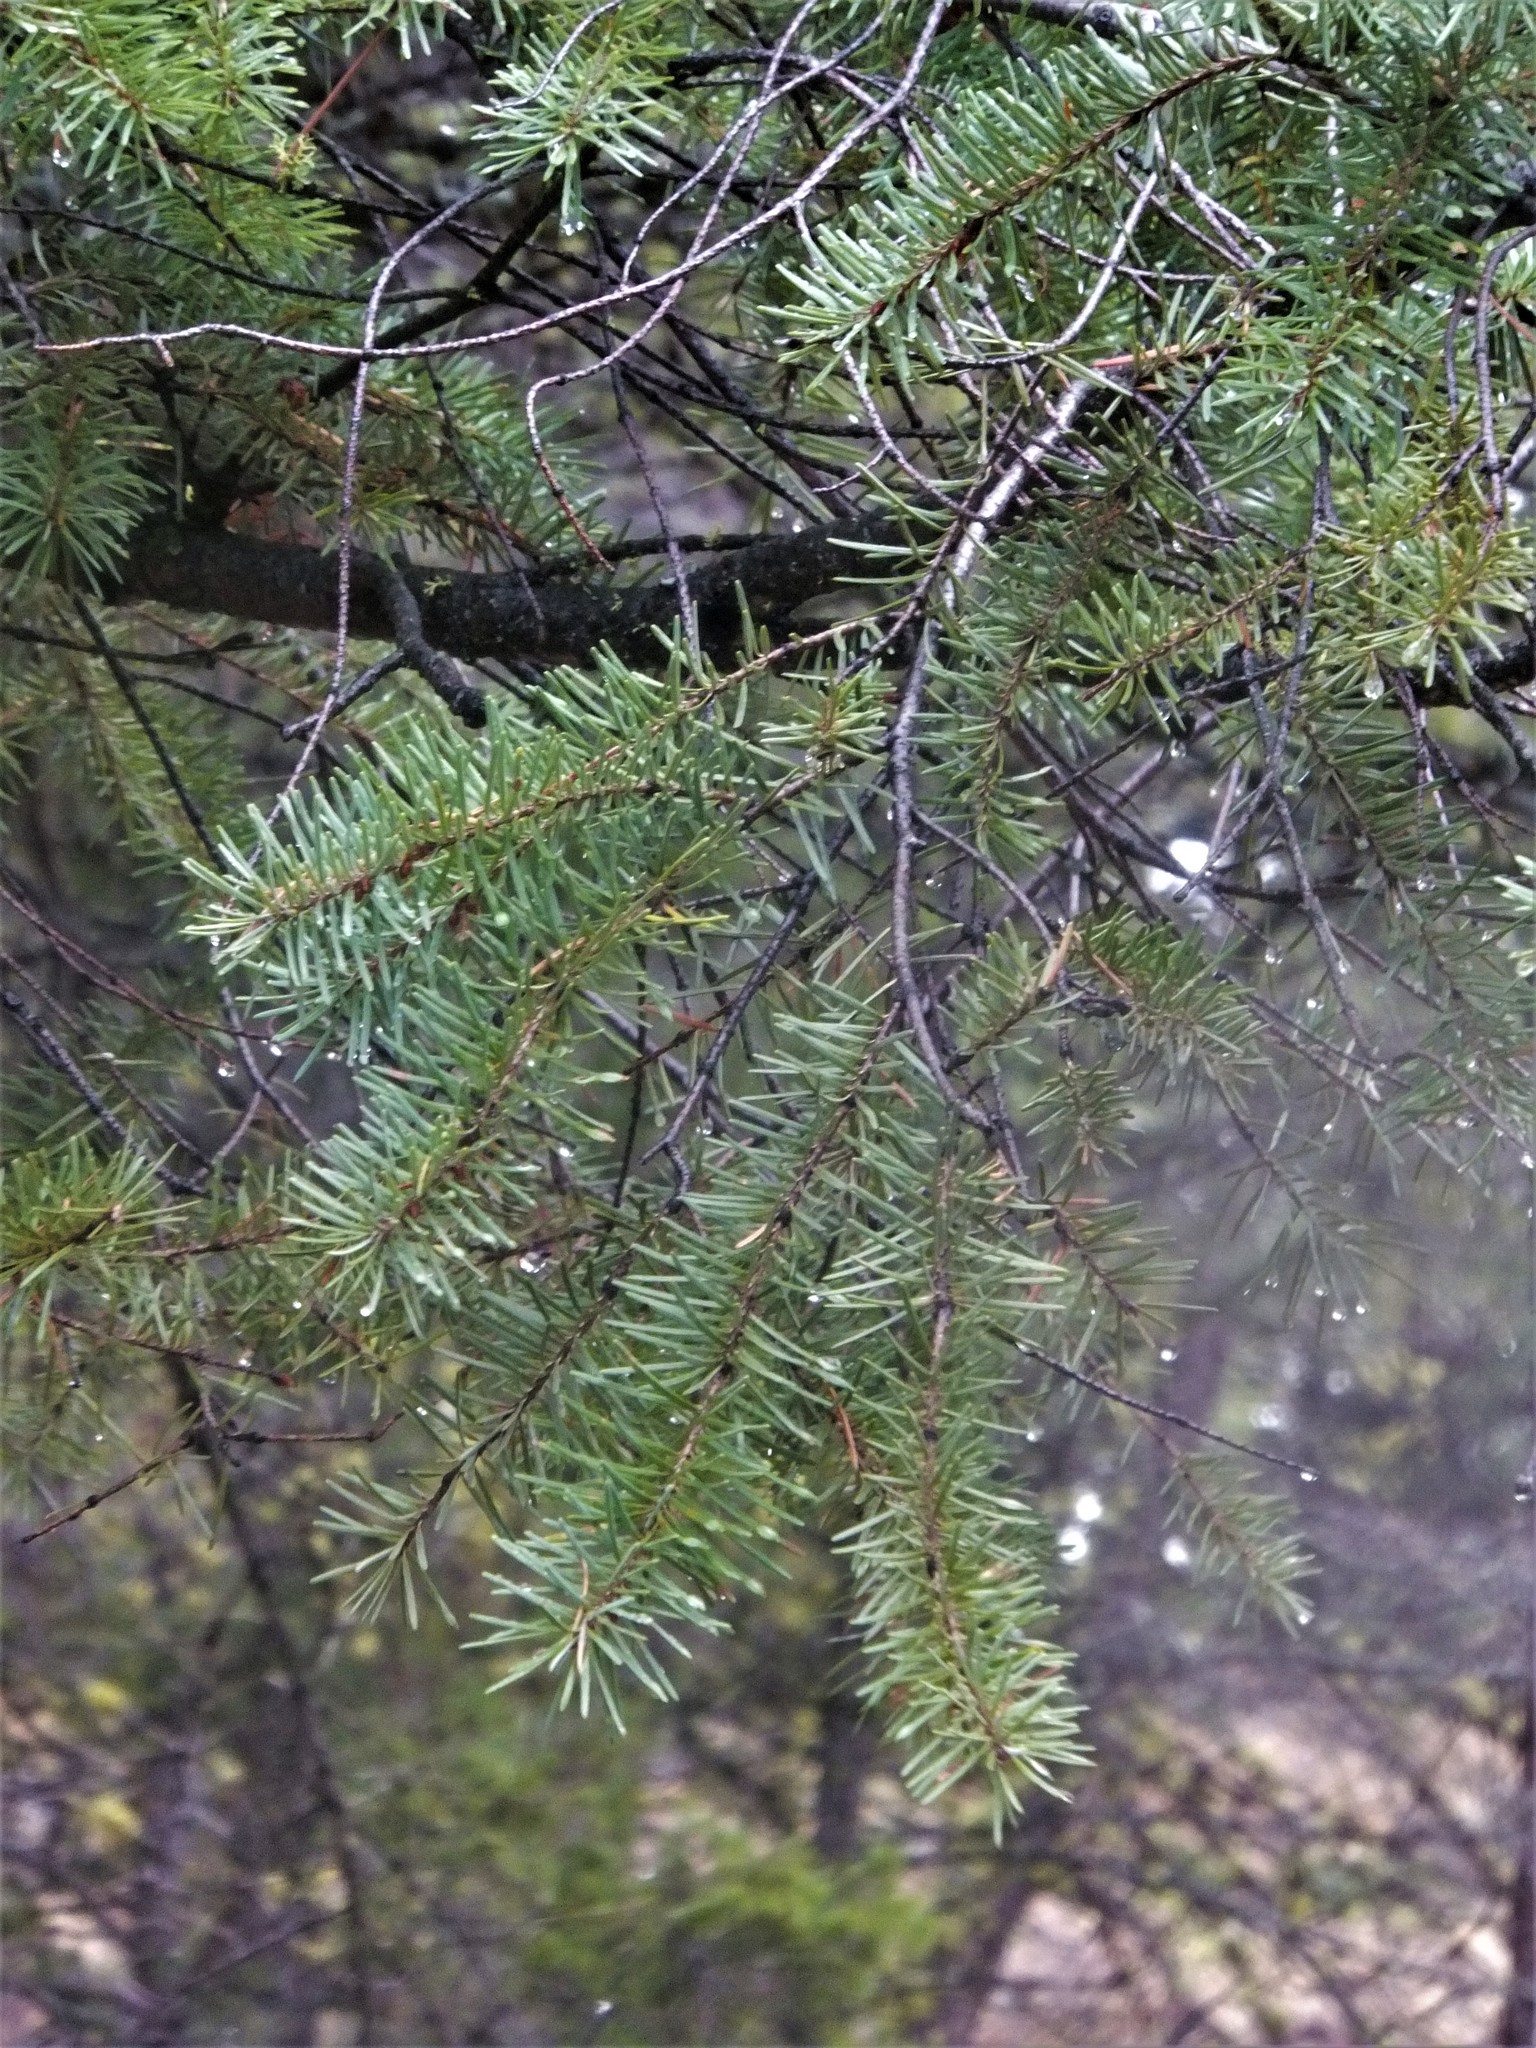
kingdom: Plantae
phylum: Tracheophyta
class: Pinopsida
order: Pinales
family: Pinaceae
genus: Pseudotsuga
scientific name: Pseudotsuga menziesii
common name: Douglas fir
